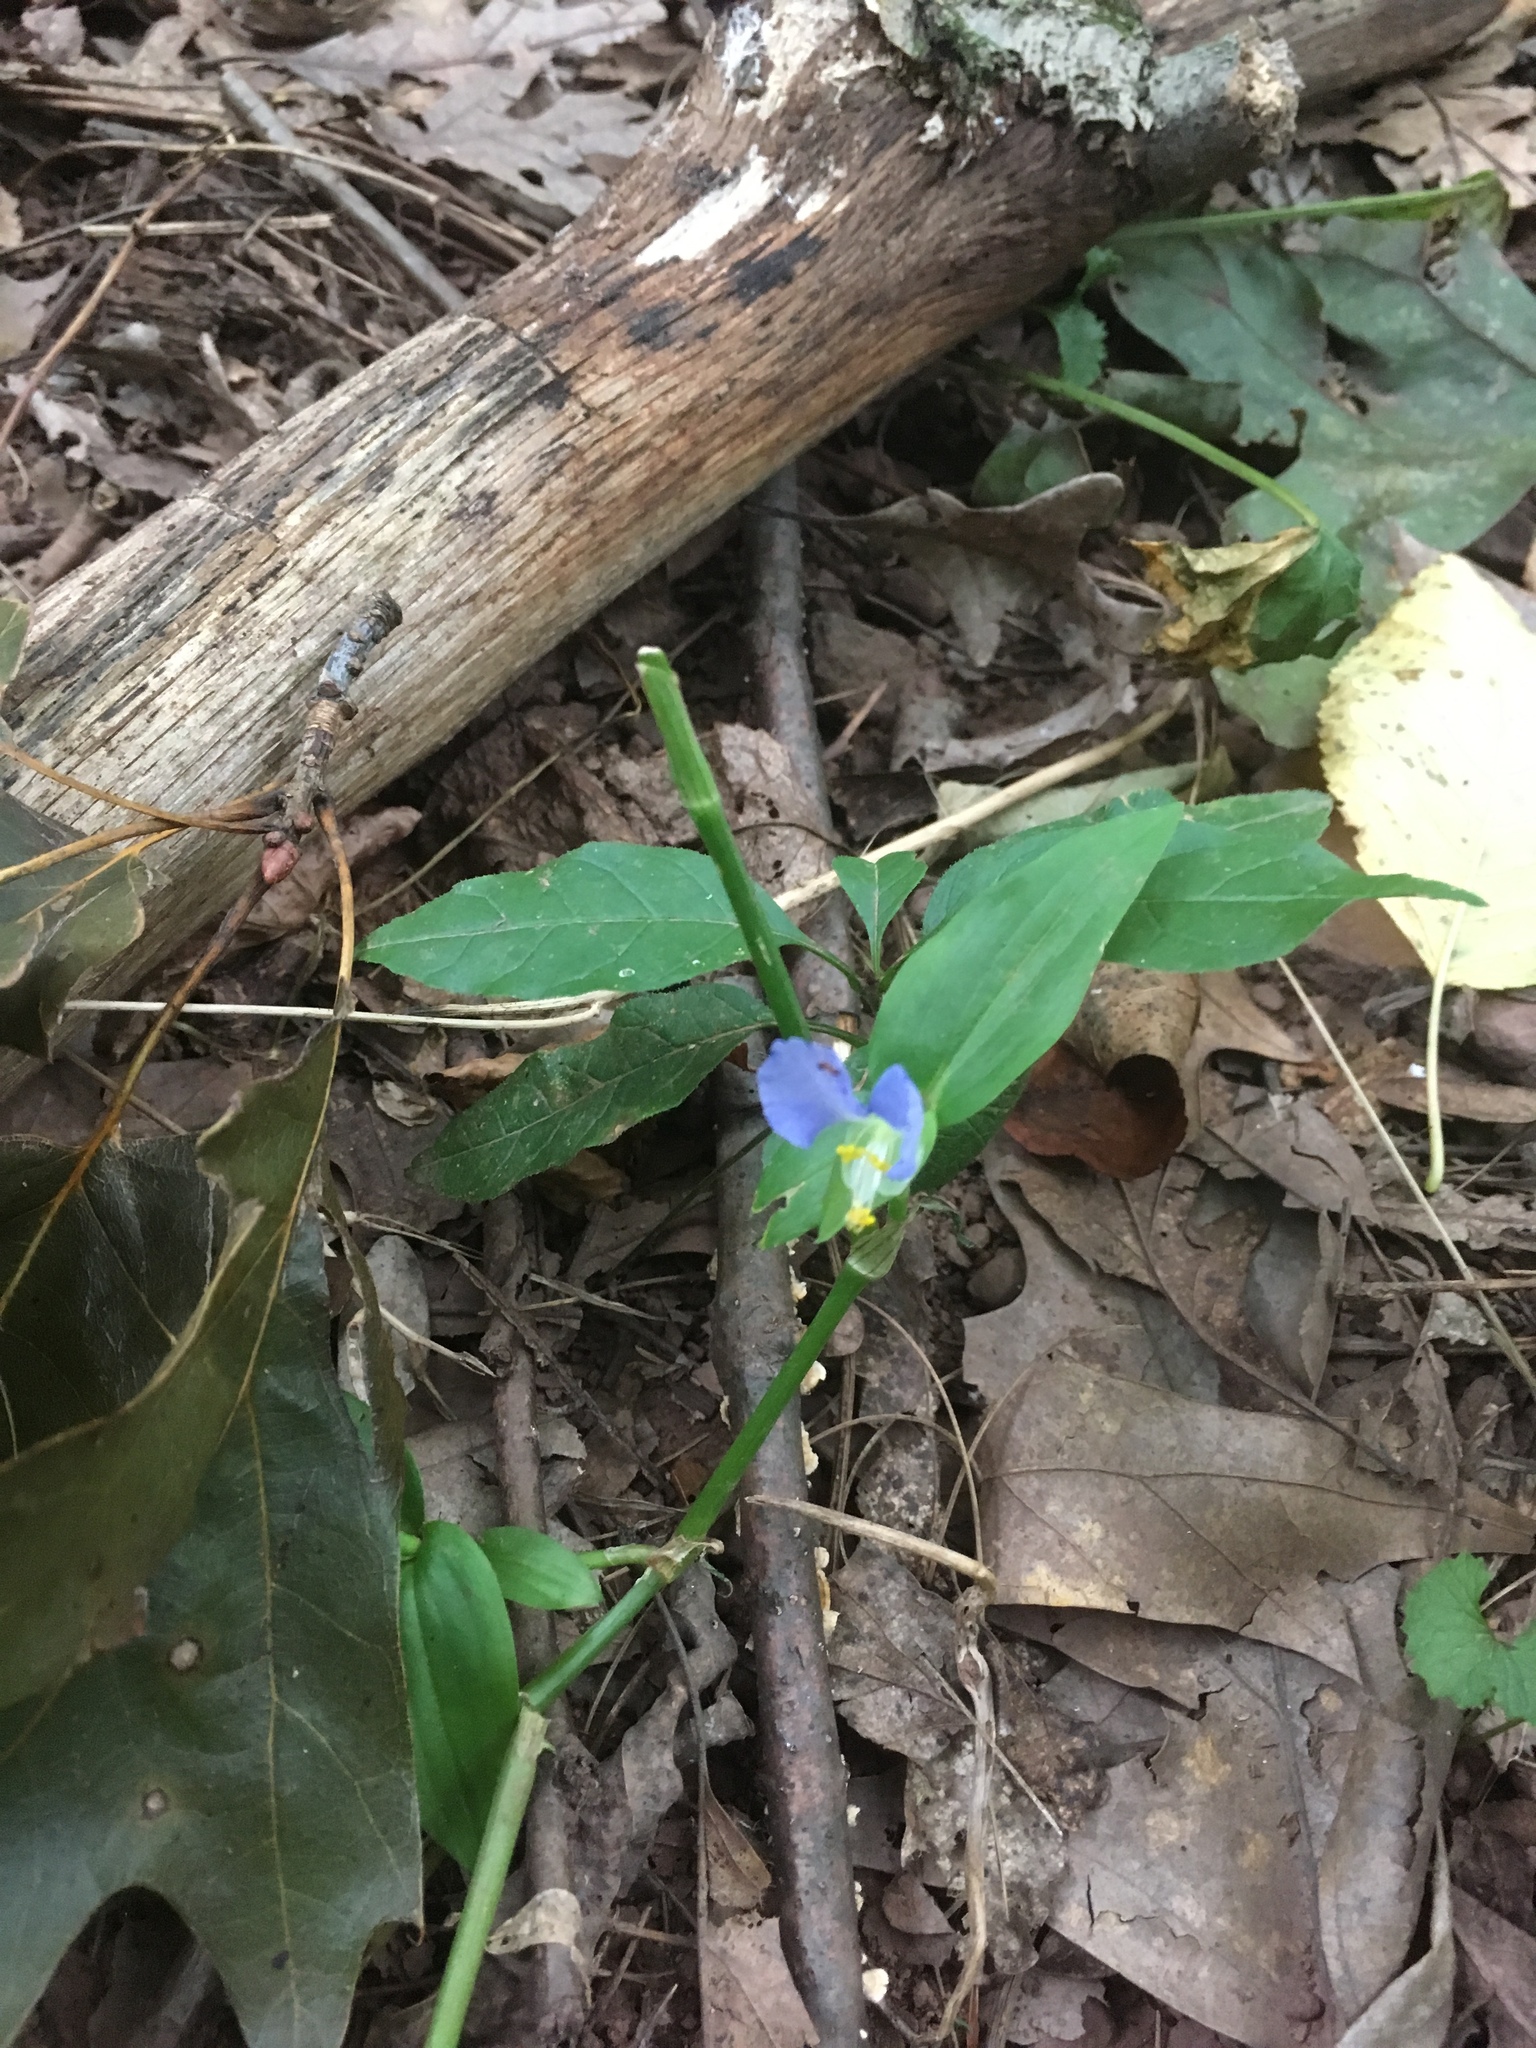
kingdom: Plantae
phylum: Tracheophyta
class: Liliopsida
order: Commelinales
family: Commelinaceae
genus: Commelina
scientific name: Commelina communis
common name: Asiatic dayflower
